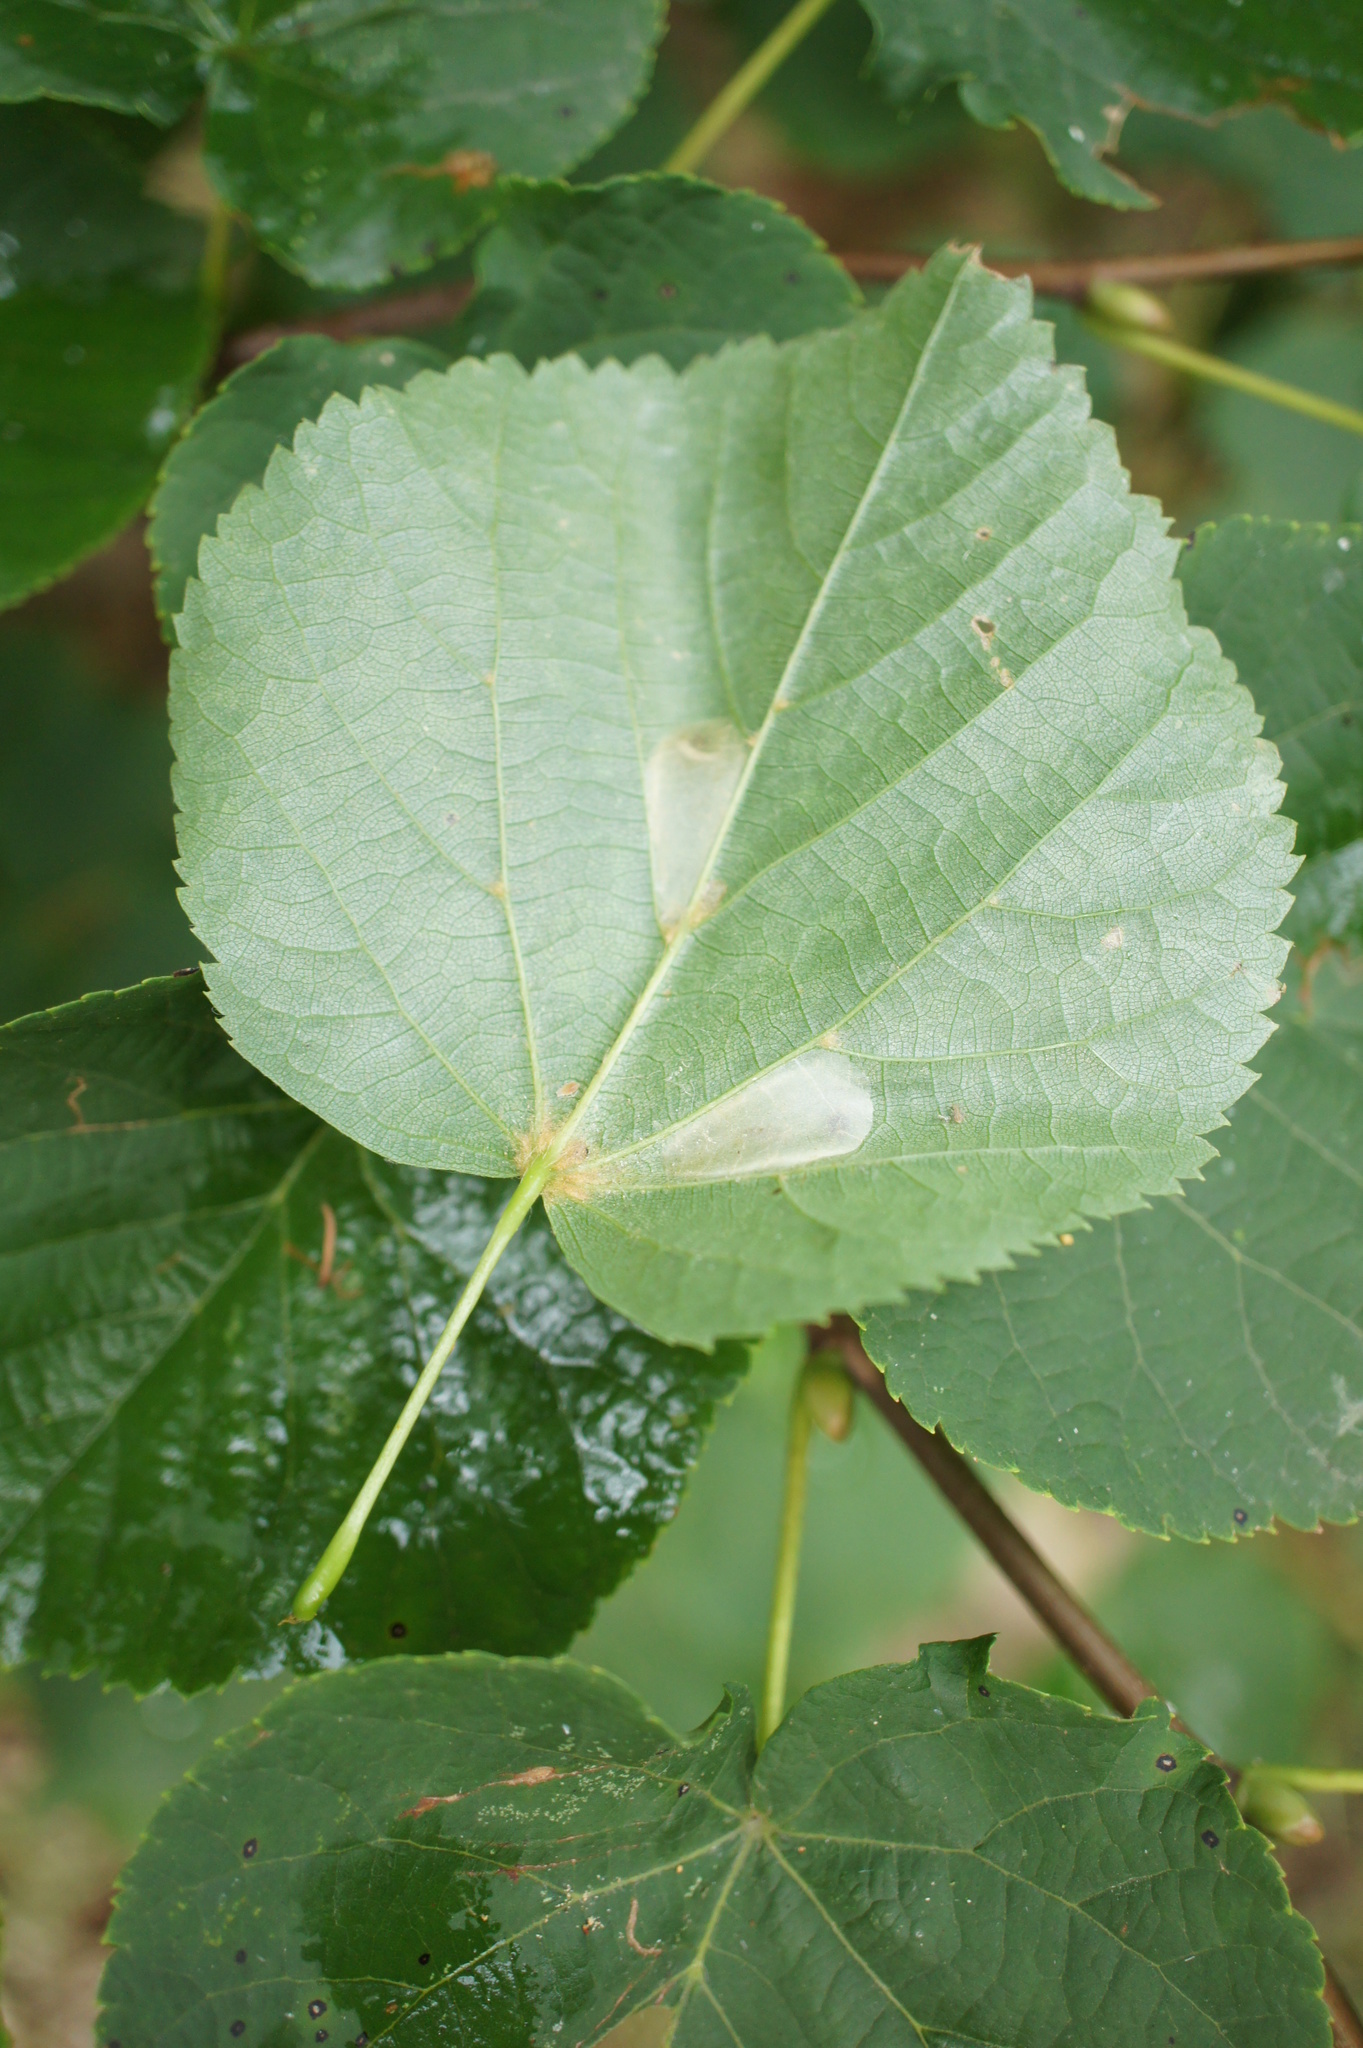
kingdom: Animalia
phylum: Arthropoda
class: Insecta
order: Lepidoptera
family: Gracillariidae
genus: Phyllonorycter
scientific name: Phyllonorycter issikii
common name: Linden midget
